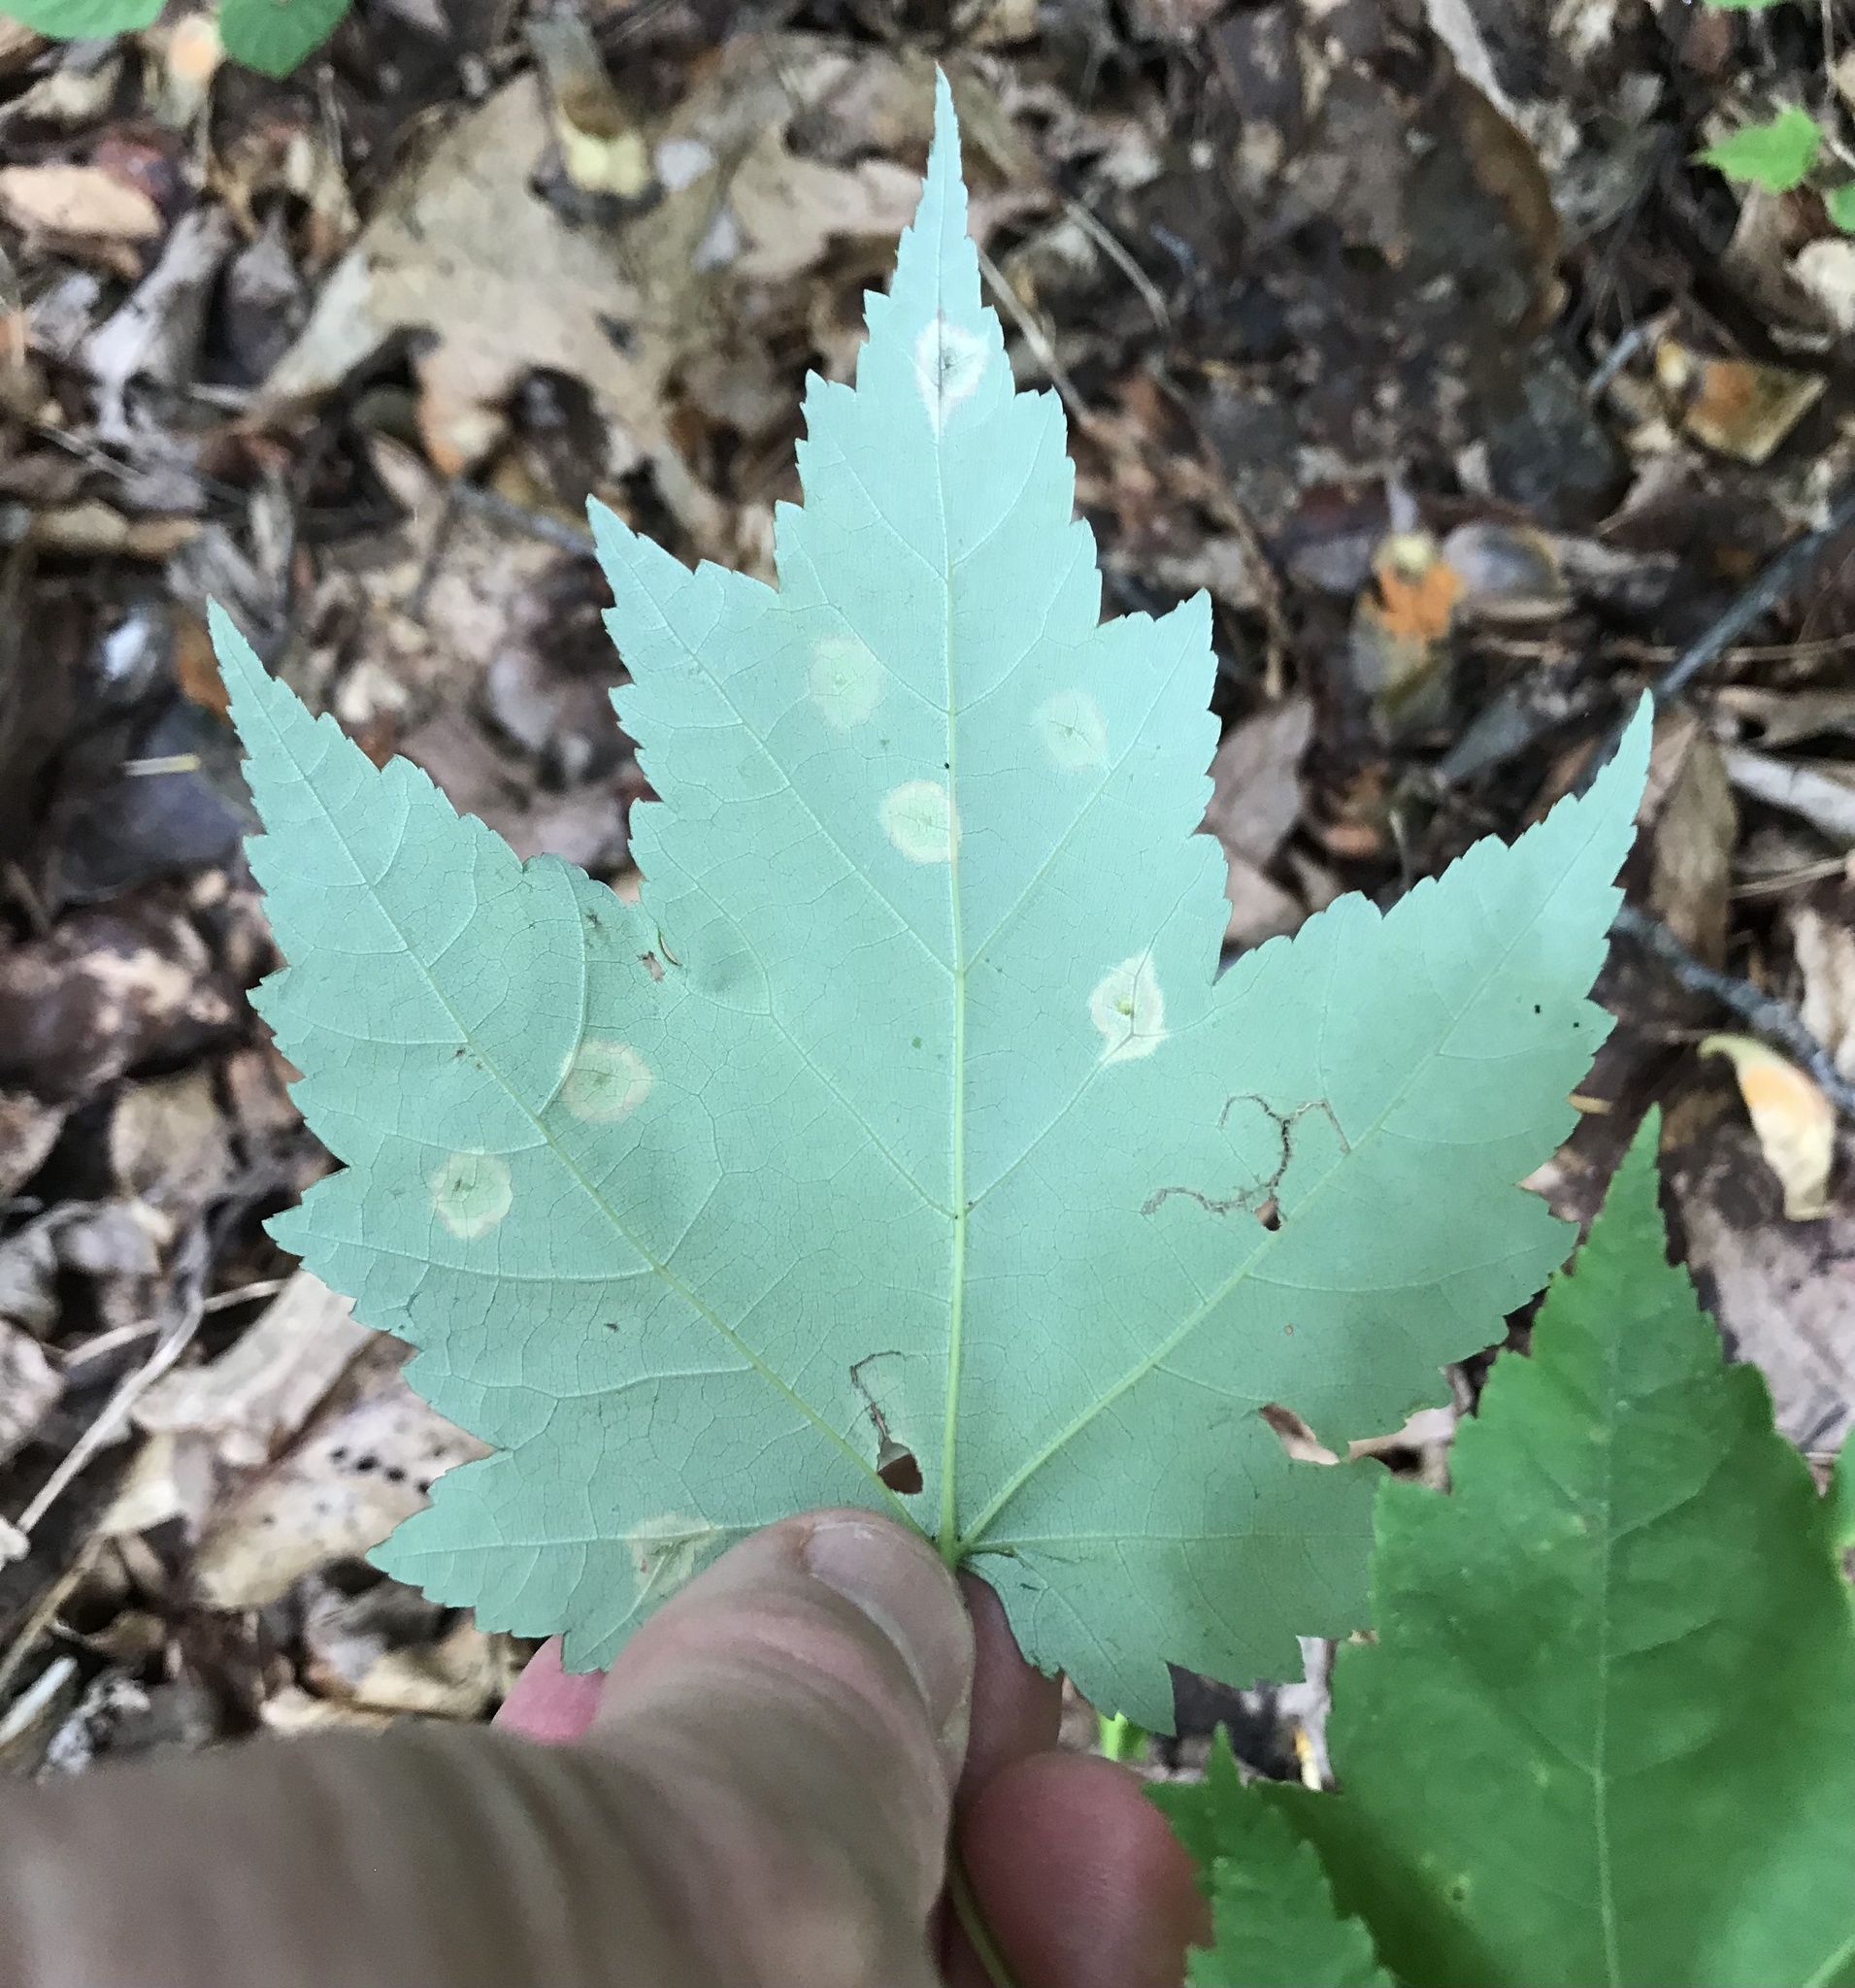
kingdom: Animalia
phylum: Arthropoda
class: Insecta
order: Diptera
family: Cecidomyiidae
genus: Acericecis
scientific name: Acericecis ocellaris
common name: Ocellate gall midge
